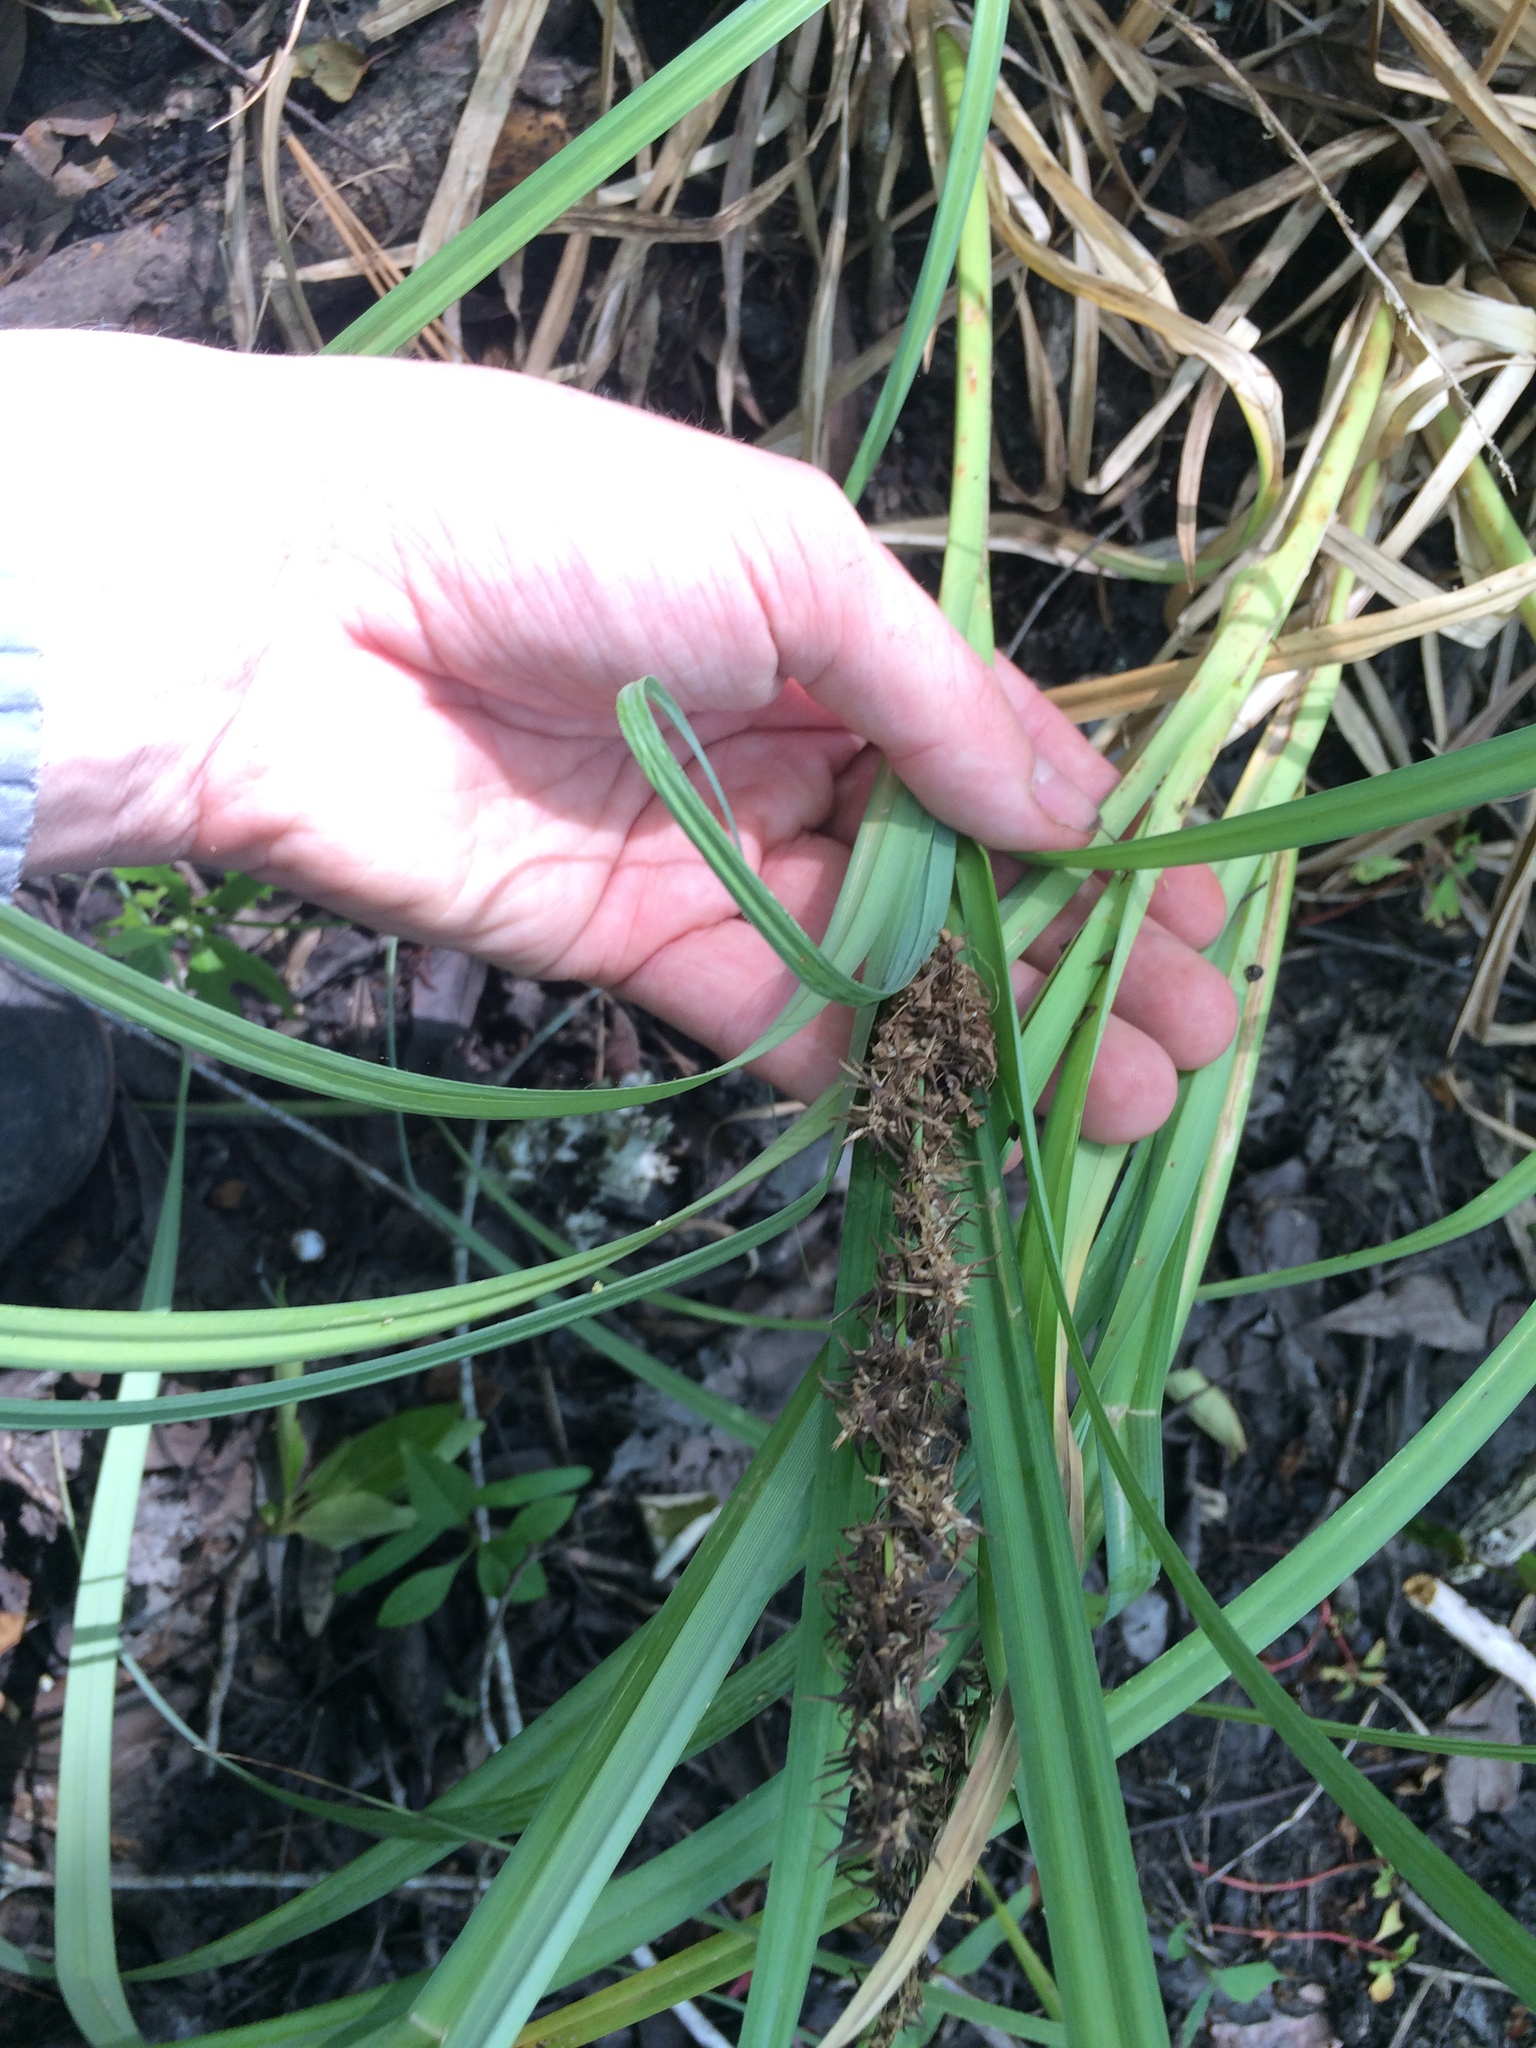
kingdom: Plantae
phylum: Tracheophyta
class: Liliopsida
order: Poales
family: Cyperaceae
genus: Carex
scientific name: Carex crus-corvi
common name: Crow-spur sedge
